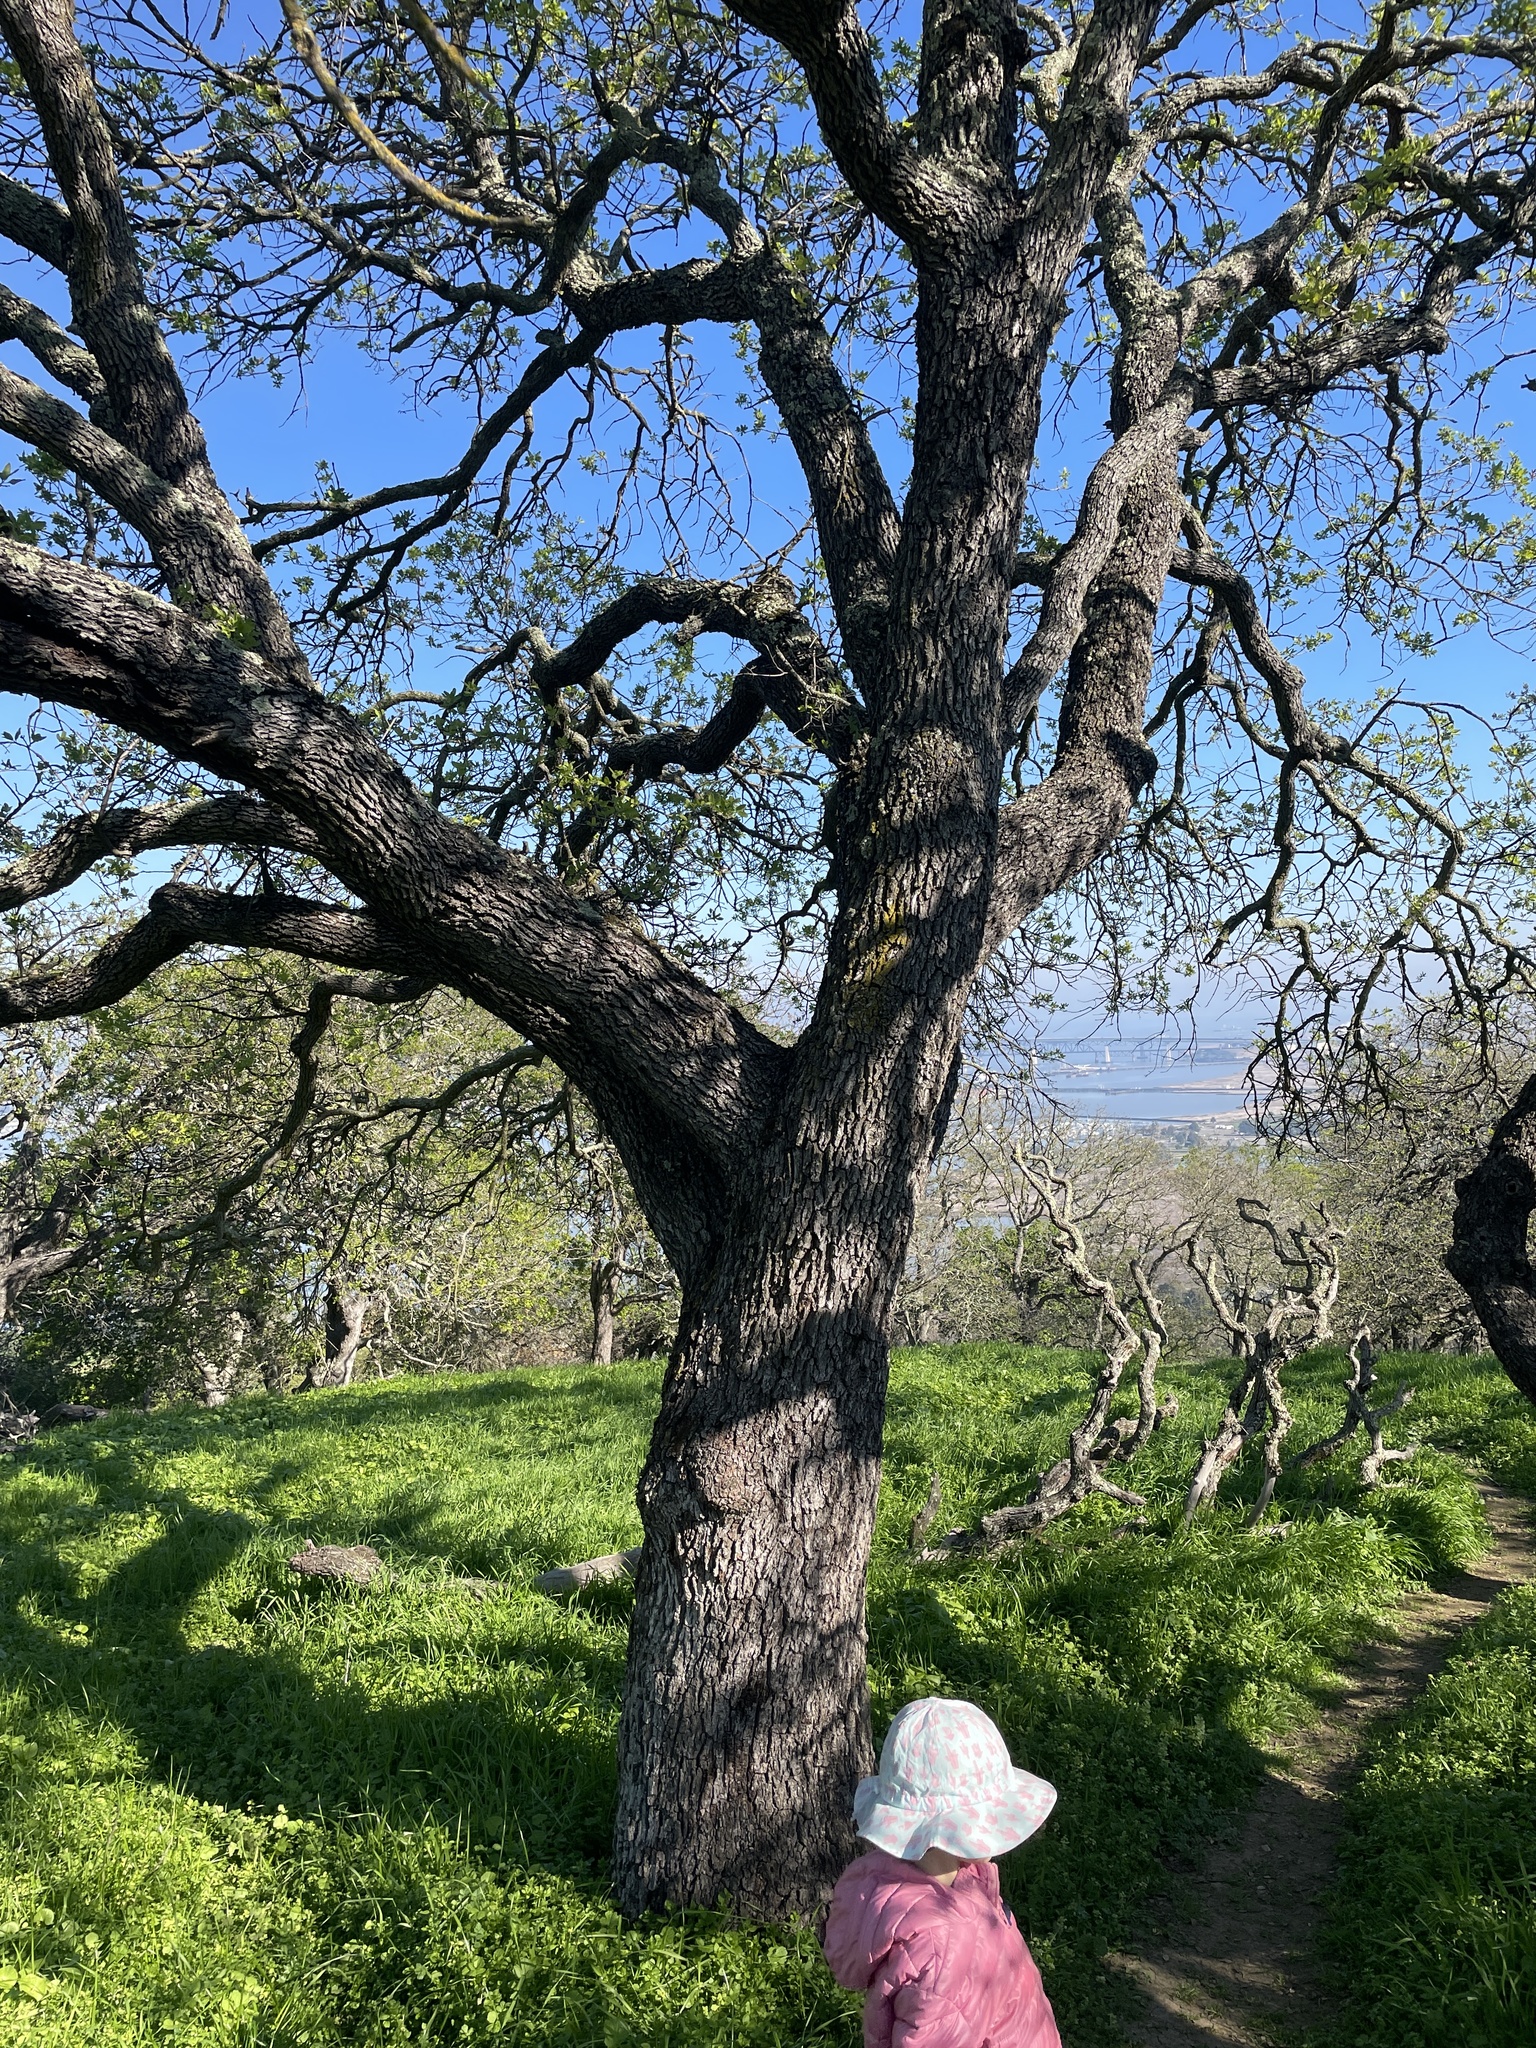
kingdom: Plantae
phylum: Tracheophyta
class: Magnoliopsida
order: Fagales
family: Fagaceae
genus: Quercus
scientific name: Quercus douglasii
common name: Blue oak
